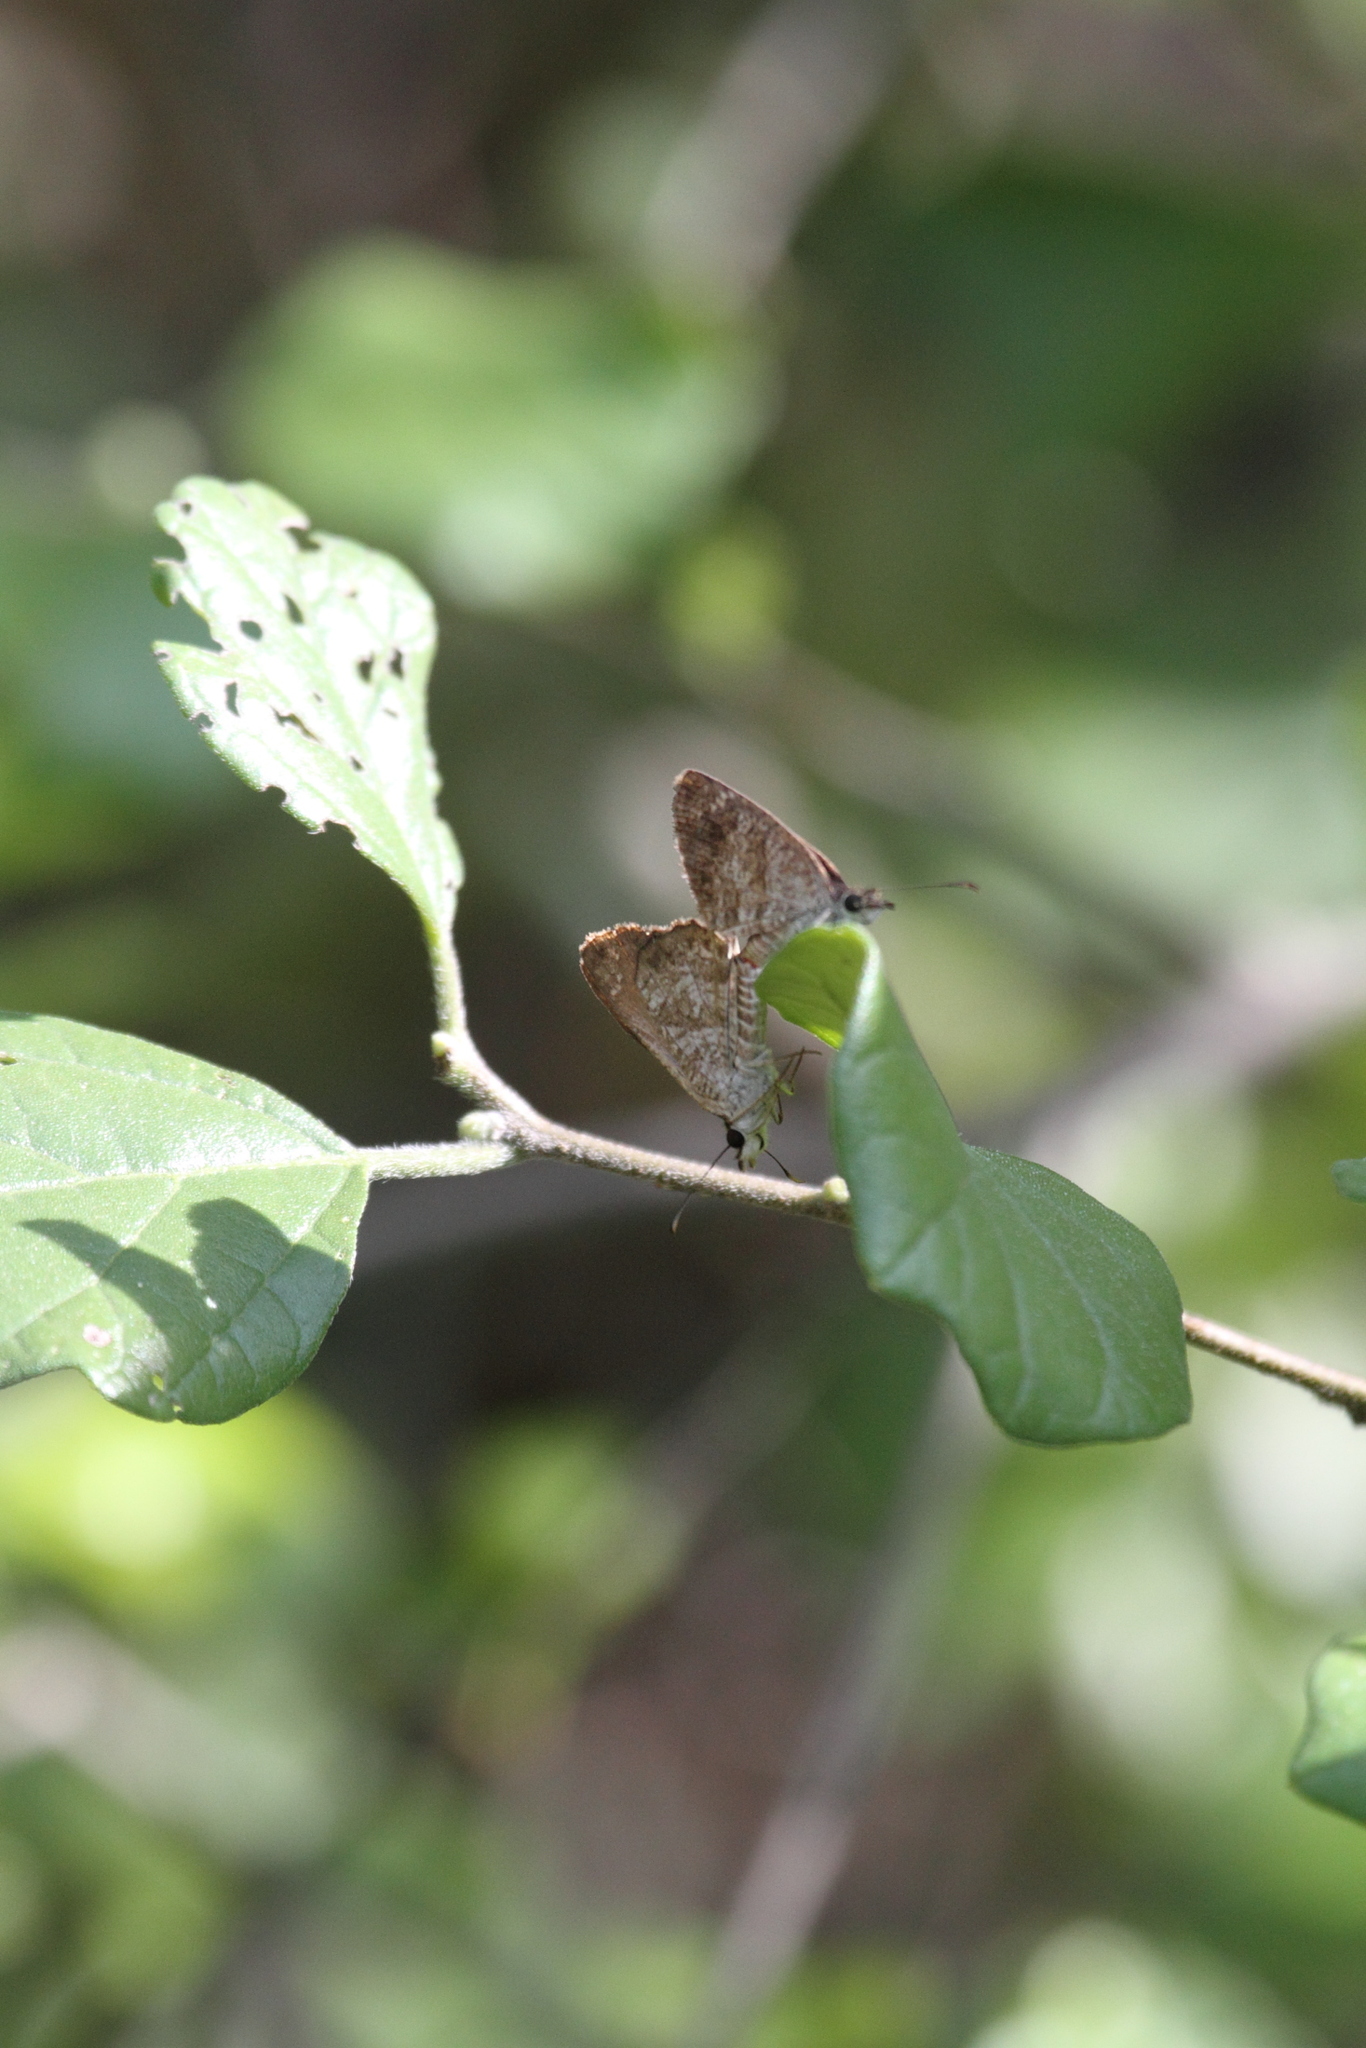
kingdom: Animalia
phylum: Arthropoda
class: Insecta
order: Lepidoptera
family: Hesperiidae
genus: Zopyrion
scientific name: Zopyrion sandace
